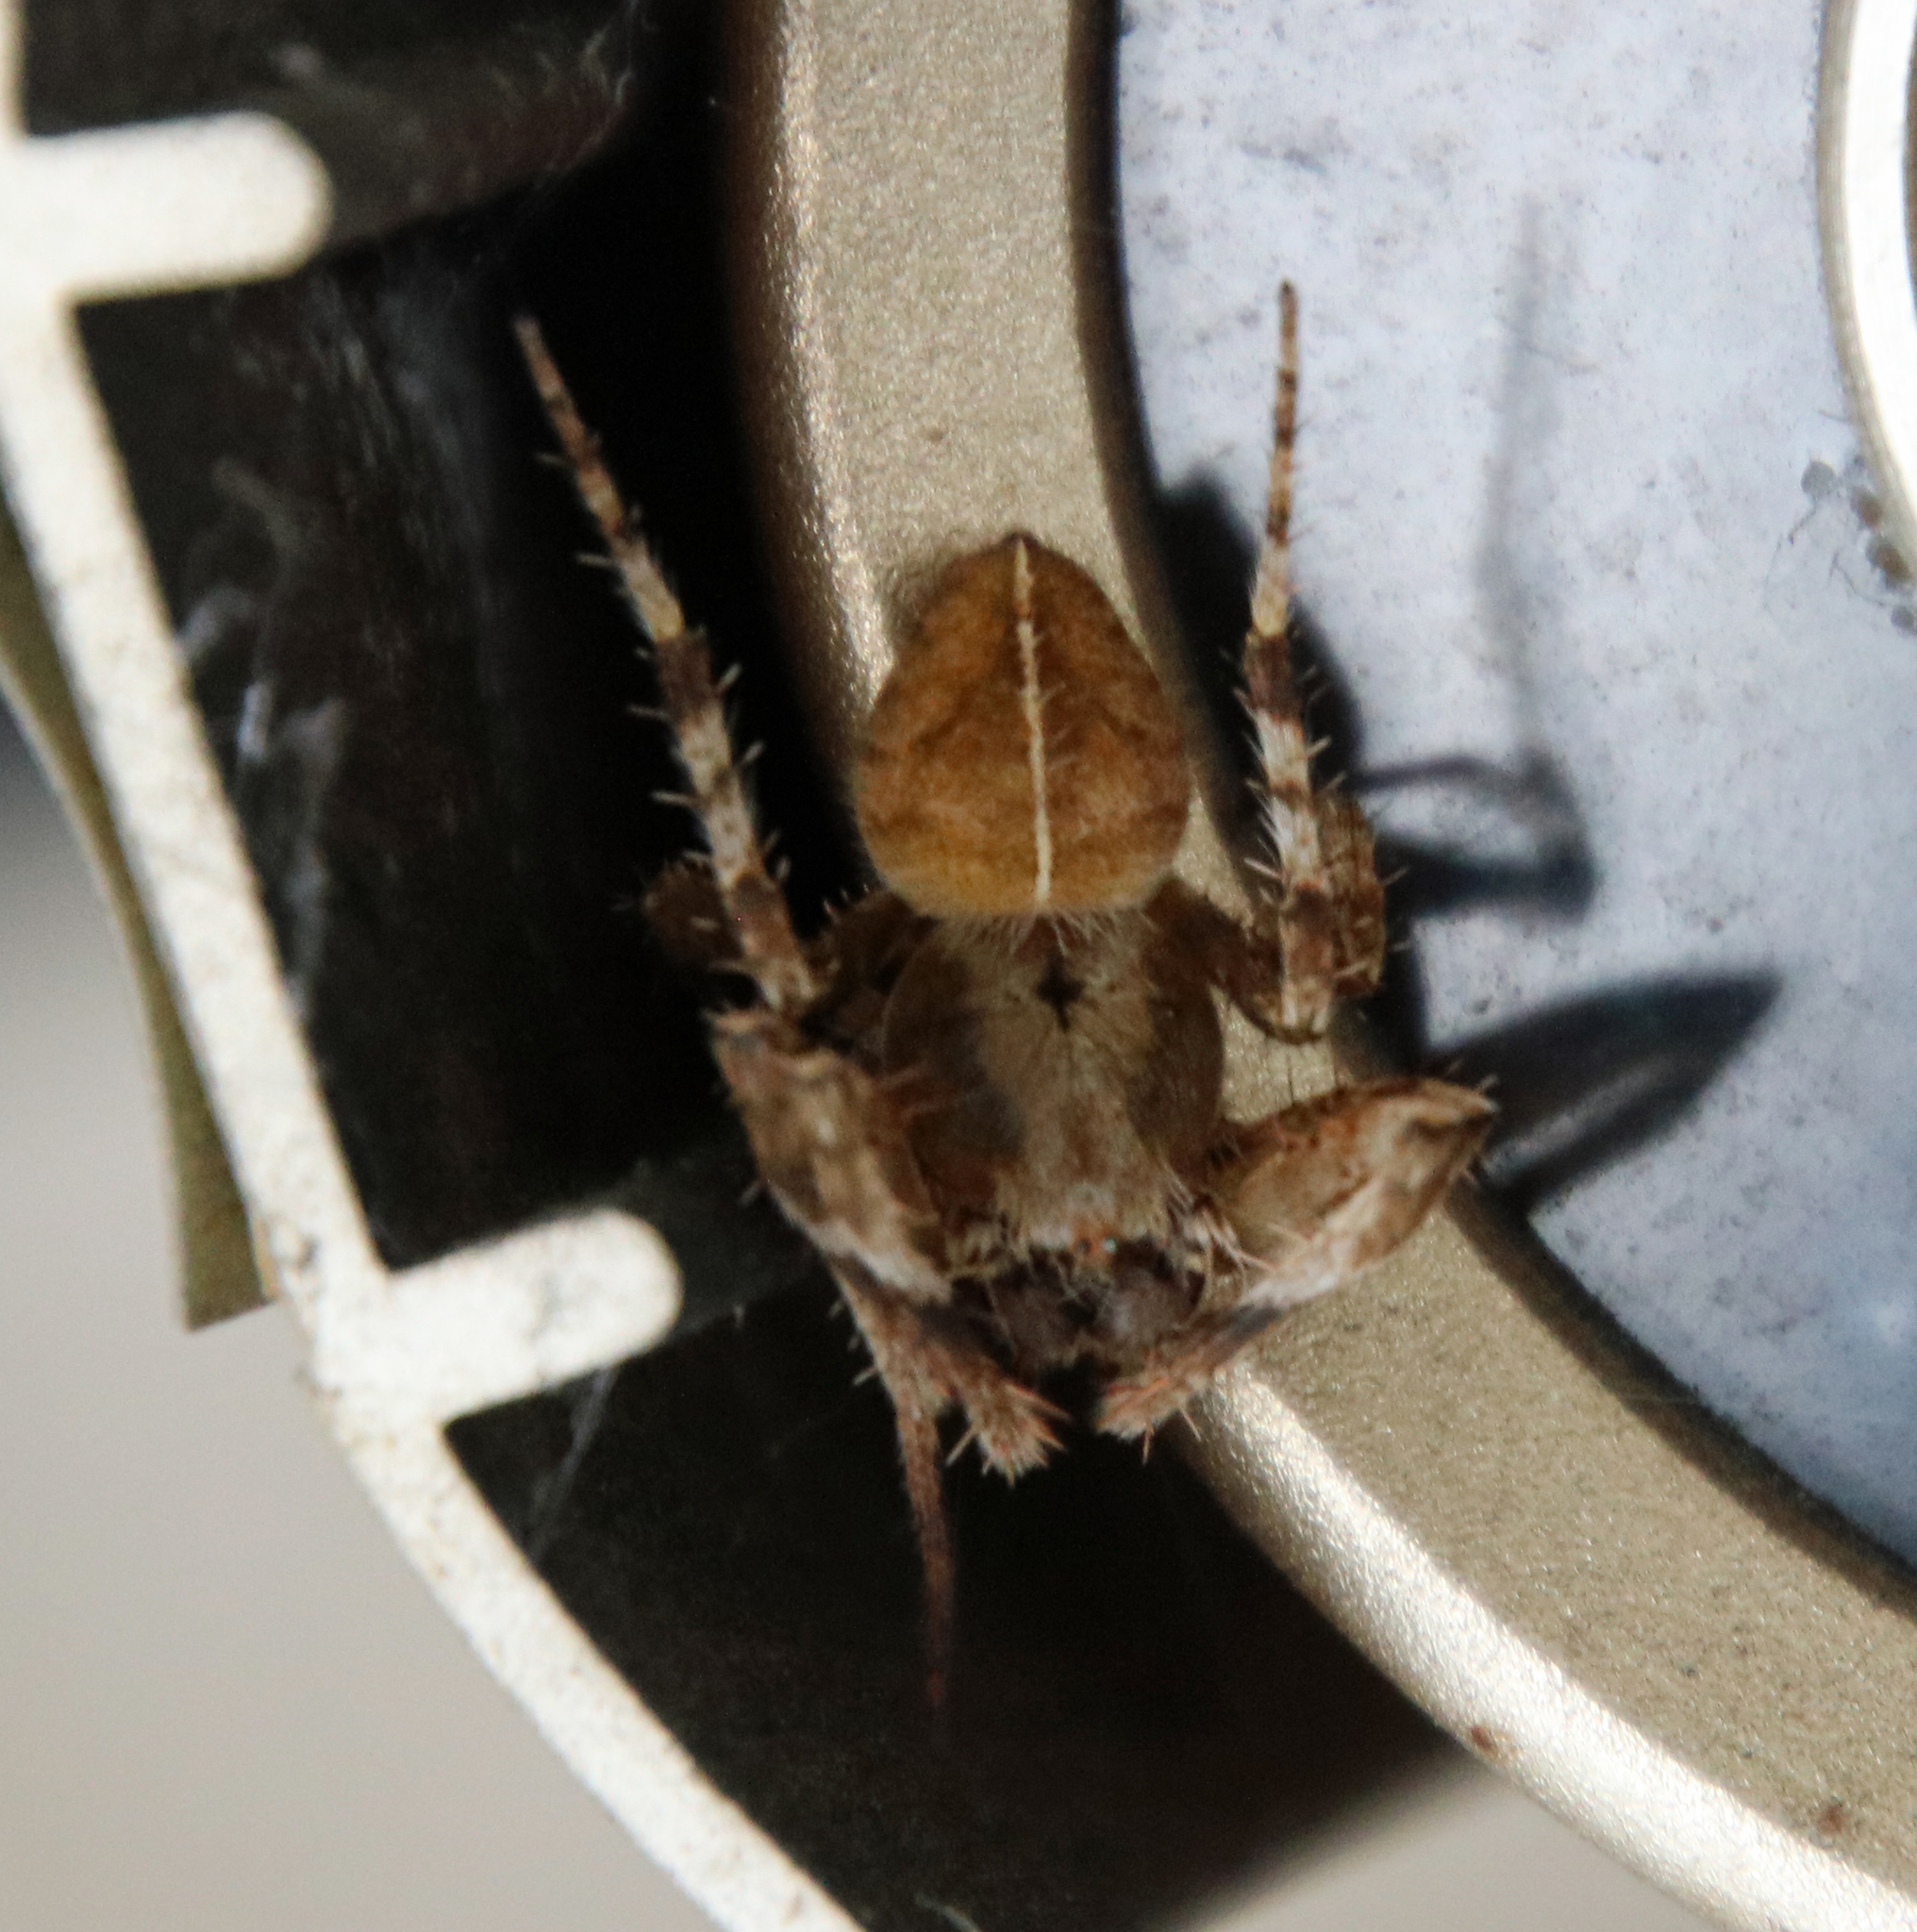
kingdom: Animalia
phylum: Arthropoda
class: Arachnida
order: Araneae
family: Araneidae
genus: Eriophora
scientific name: Eriophora edax
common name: Orb weavers
